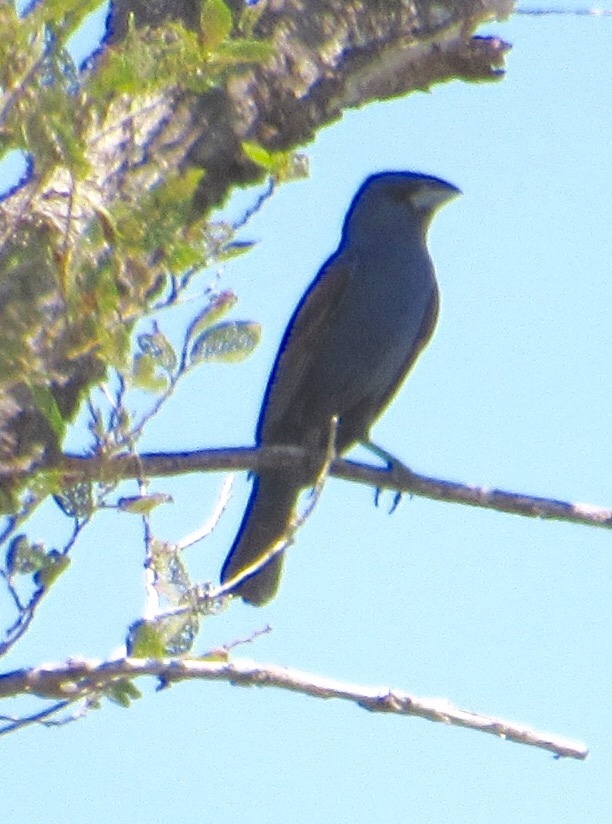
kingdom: Animalia
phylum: Chordata
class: Aves
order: Passeriformes
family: Cardinalidae
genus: Passerina
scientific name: Passerina caerulea
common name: Blue grosbeak
